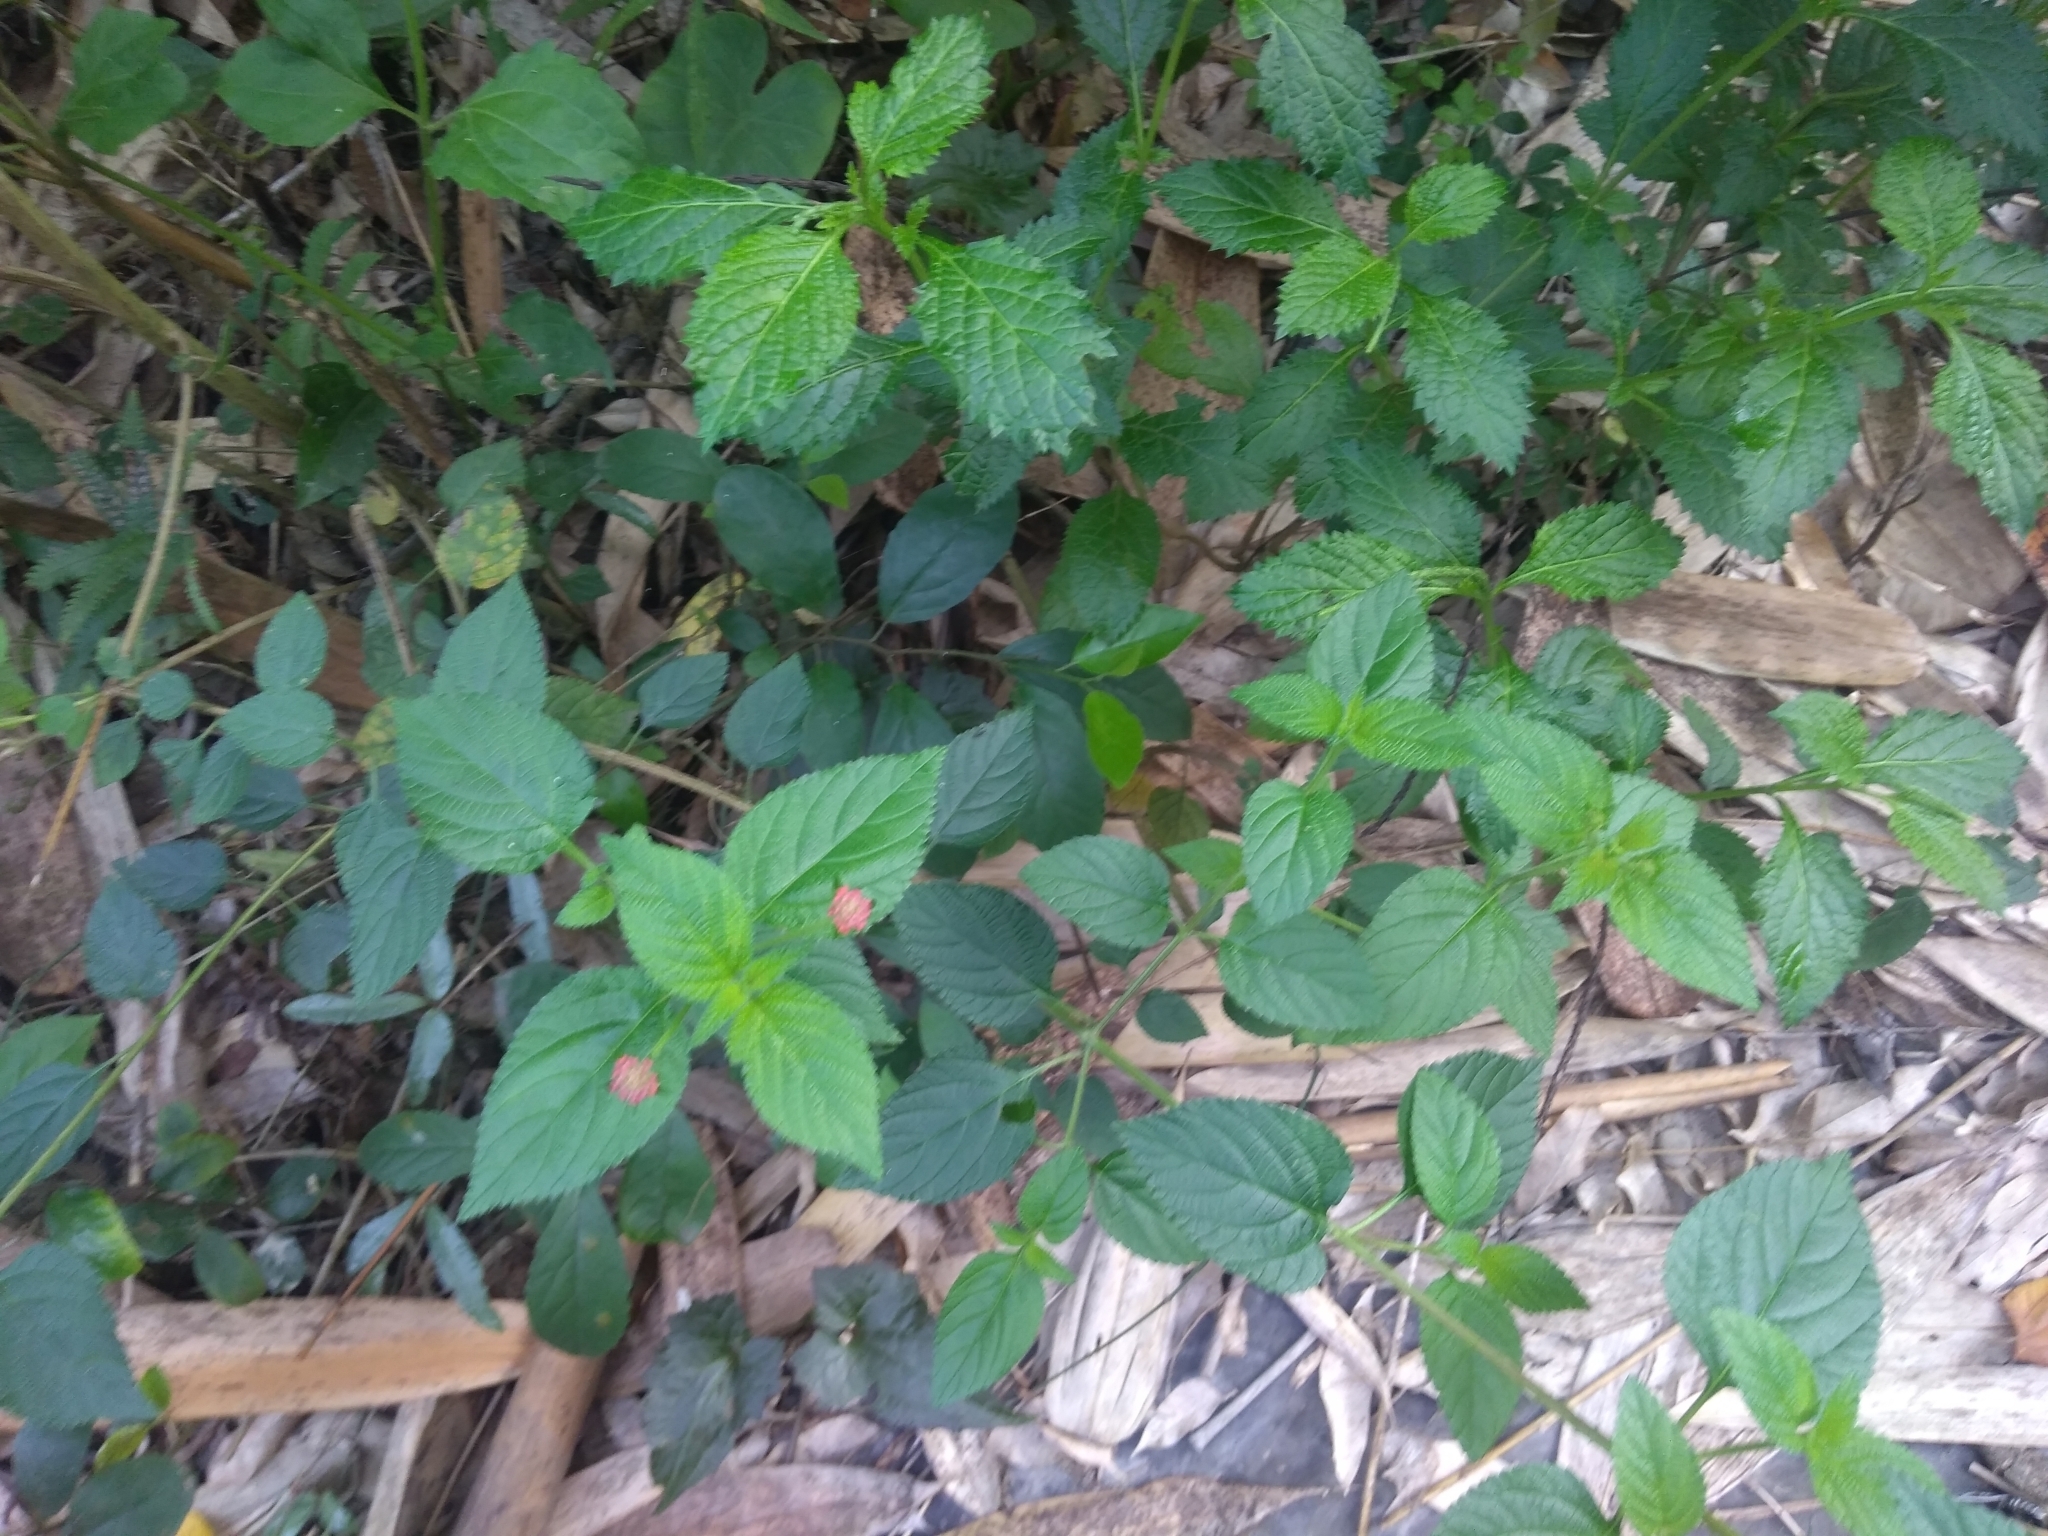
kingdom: Plantae
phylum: Tracheophyta
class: Magnoliopsida
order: Lamiales
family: Verbenaceae
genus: Lantana
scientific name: Lantana camara
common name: Lantana
